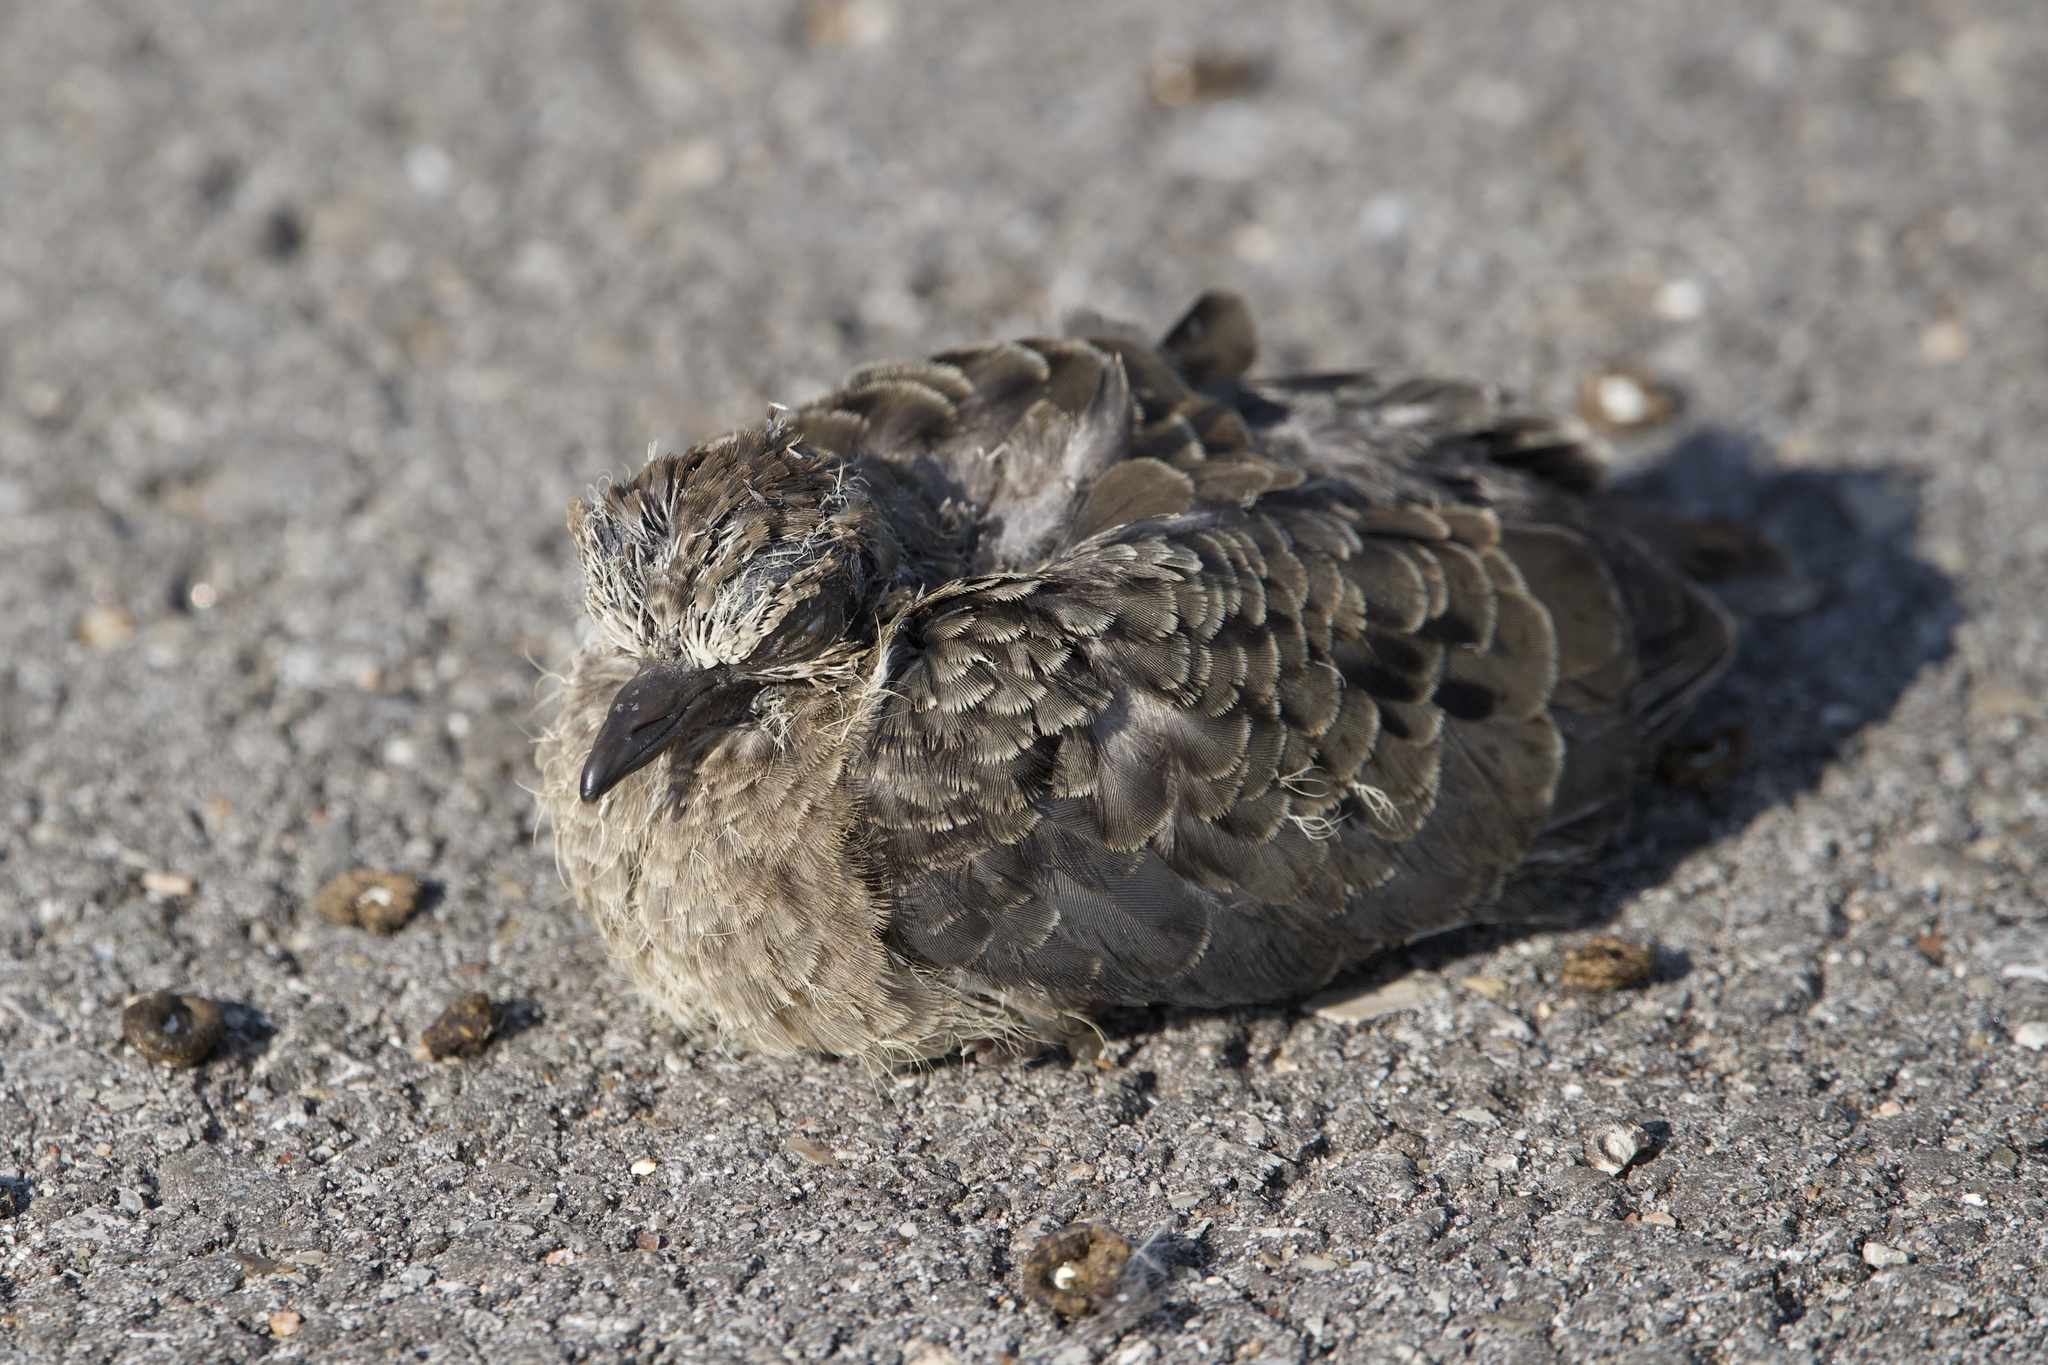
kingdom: Animalia
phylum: Chordata
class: Aves
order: Columbiformes
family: Columbidae
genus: Zenaida
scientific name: Zenaida macroura
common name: Mourning dove
